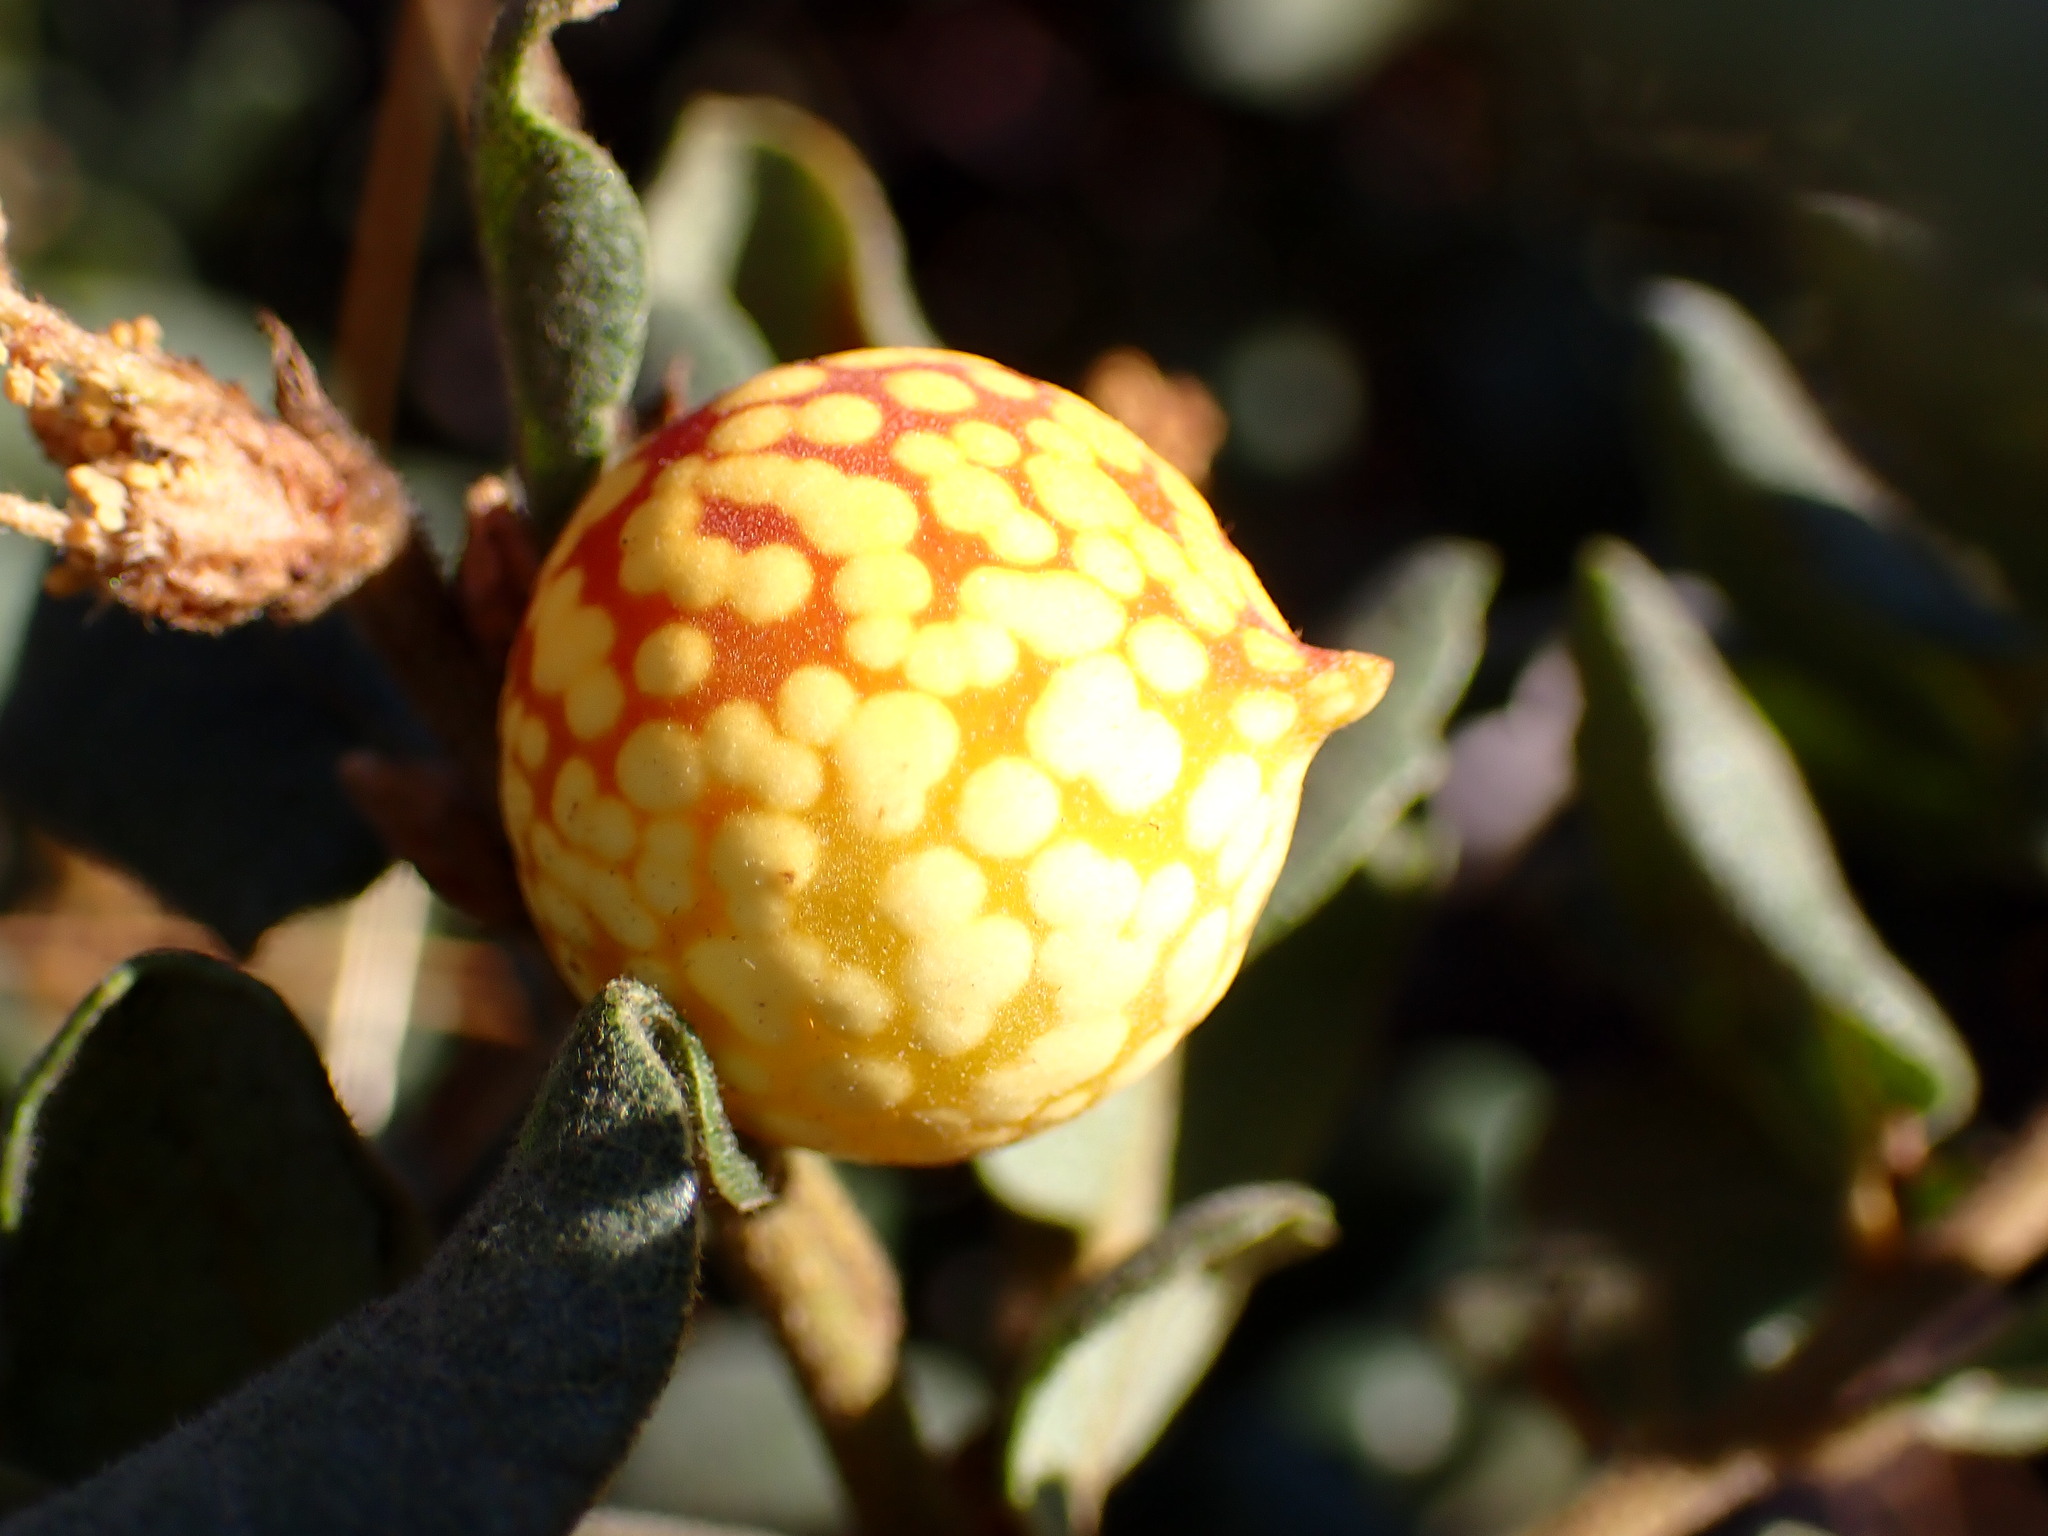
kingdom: Animalia
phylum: Arthropoda
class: Insecta
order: Hymenoptera
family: Cynipidae
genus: Burnettweldia
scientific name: Burnettweldia
